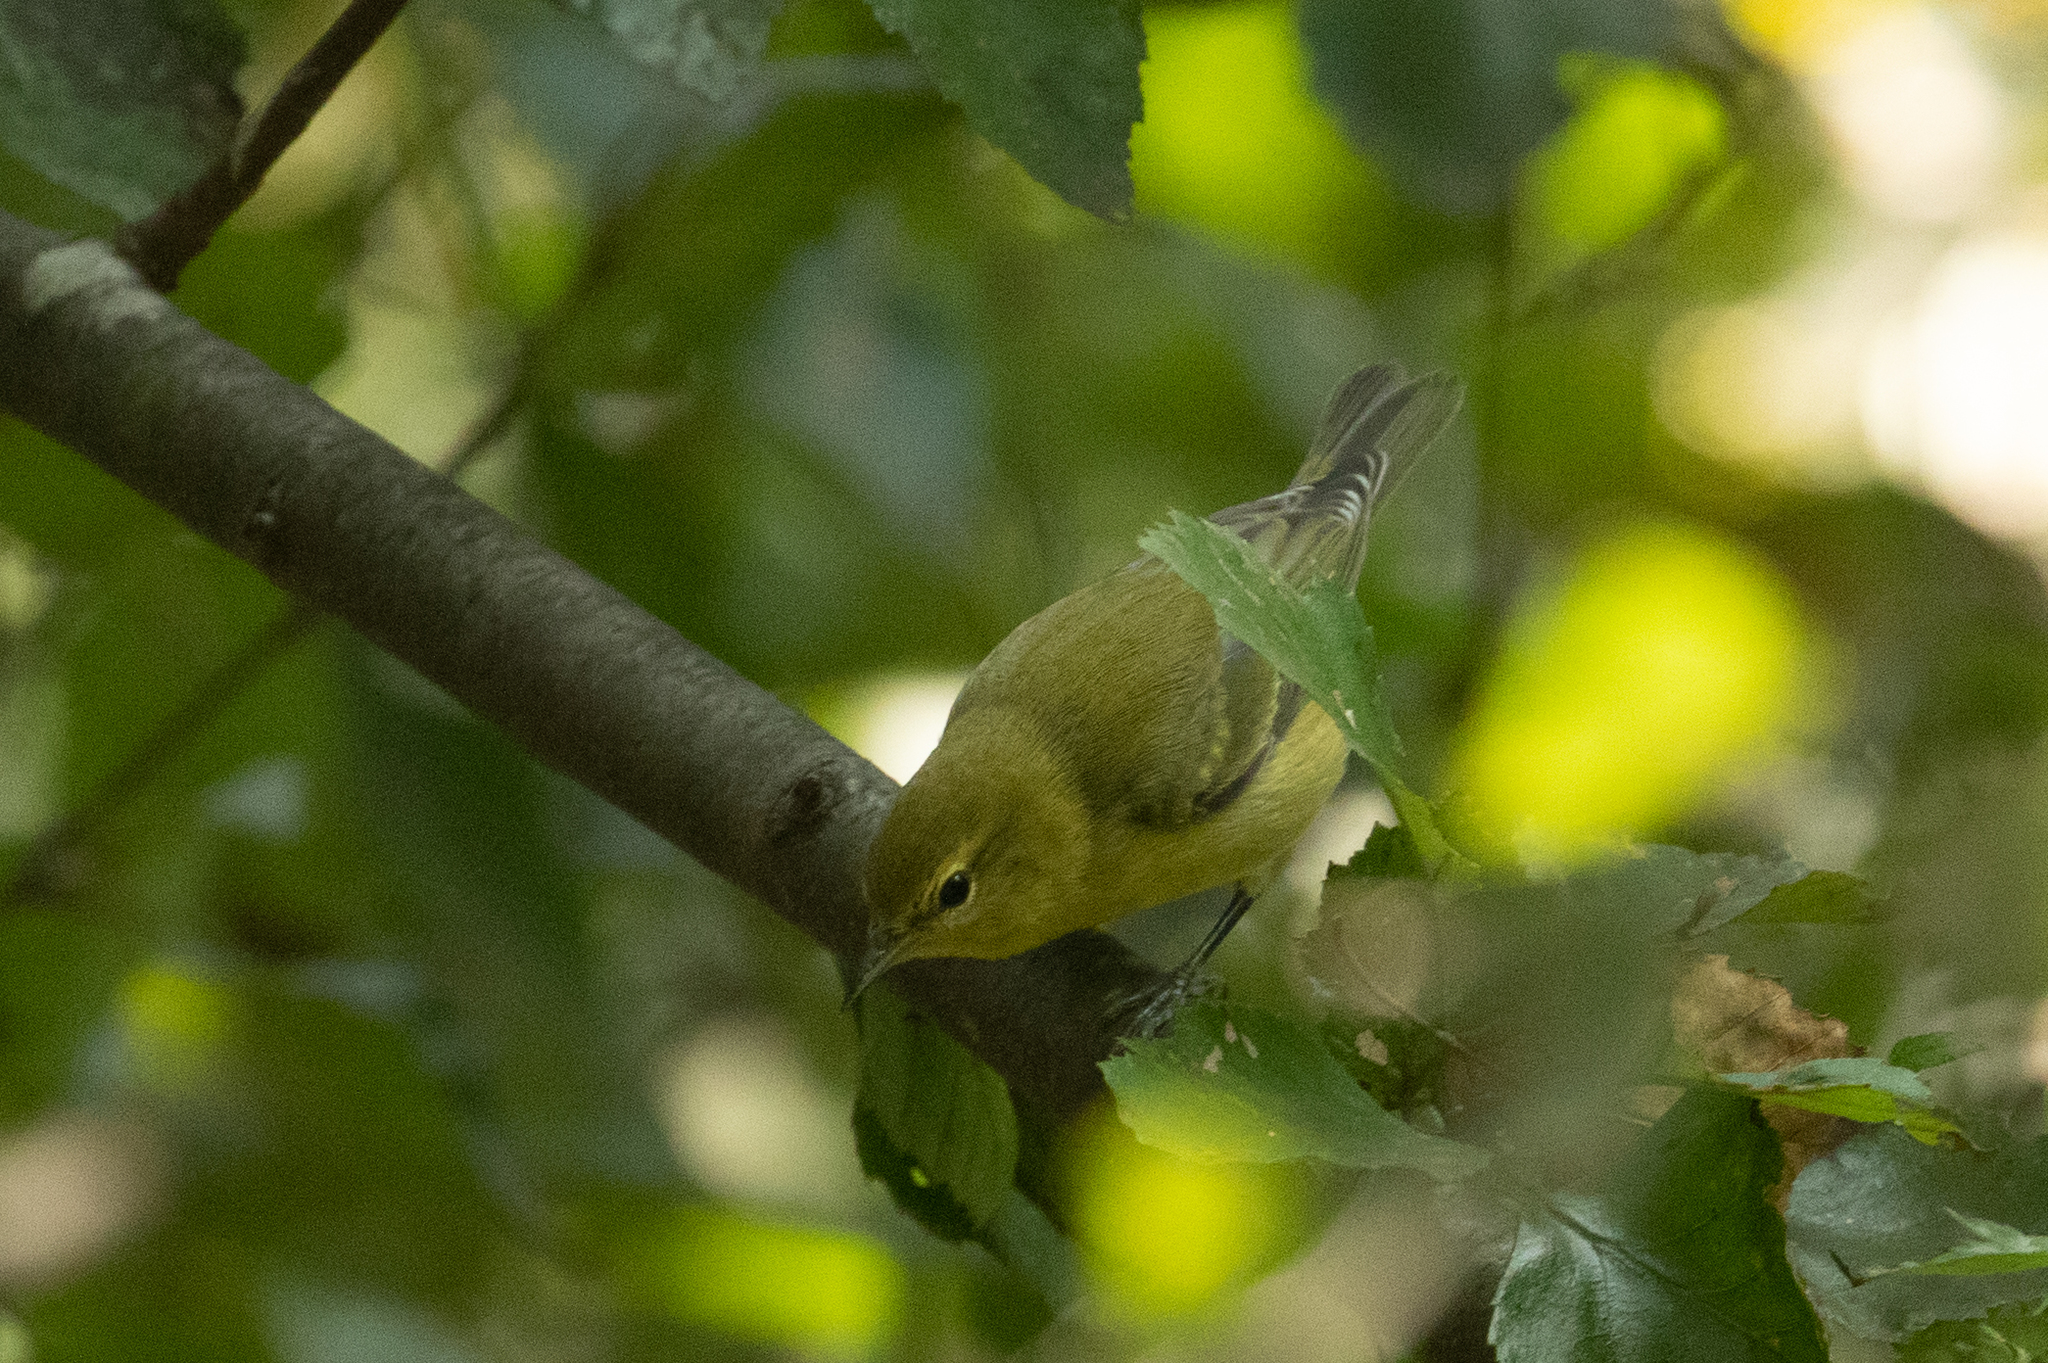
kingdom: Animalia
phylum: Chordata
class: Aves
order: Passeriformes
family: Parulidae
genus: Leiothlypis
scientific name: Leiothlypis peregrina
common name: Tennessee warbler
